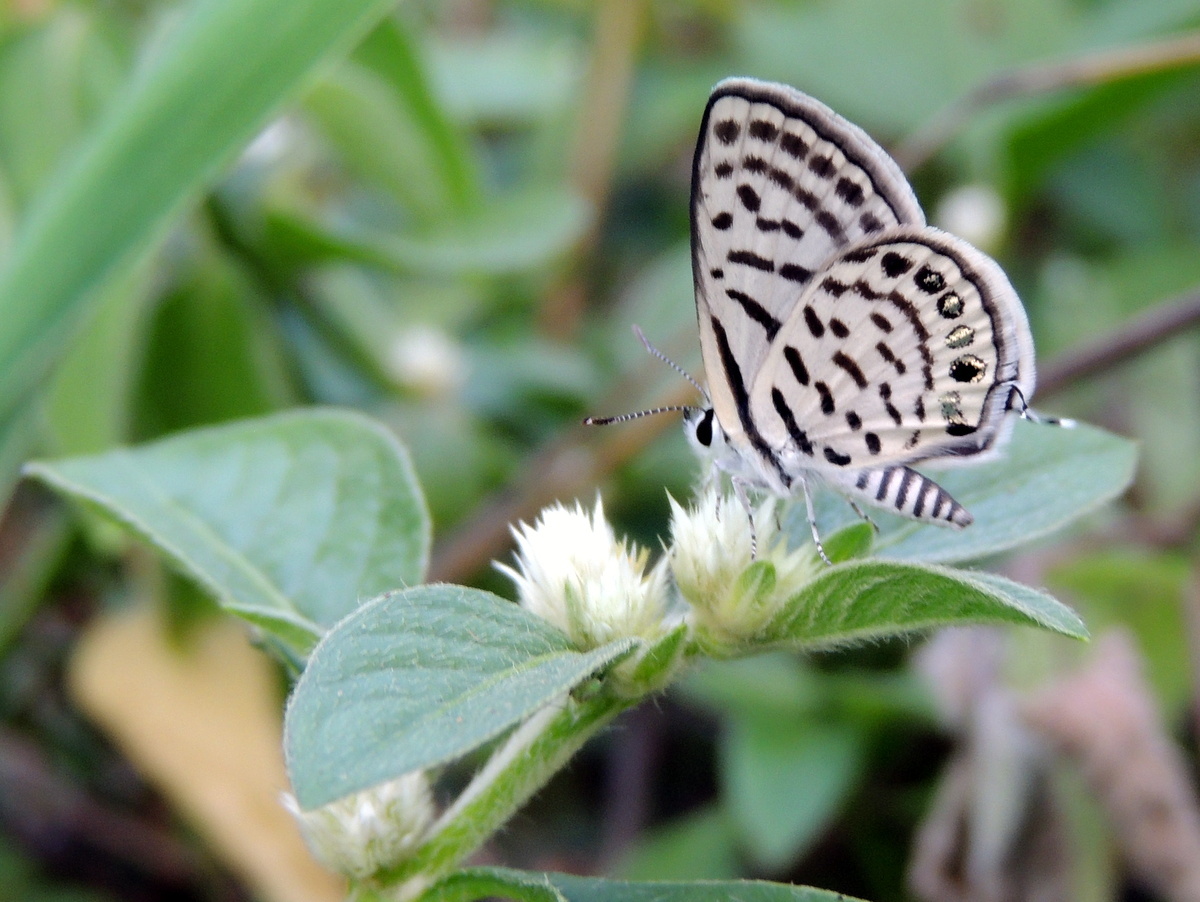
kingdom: Animalia
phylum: Arthropoda
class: Insecta
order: Lepidoptera
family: Lycaenidae
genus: Tarucus
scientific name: Tarucus nara
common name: Striped pierrot
